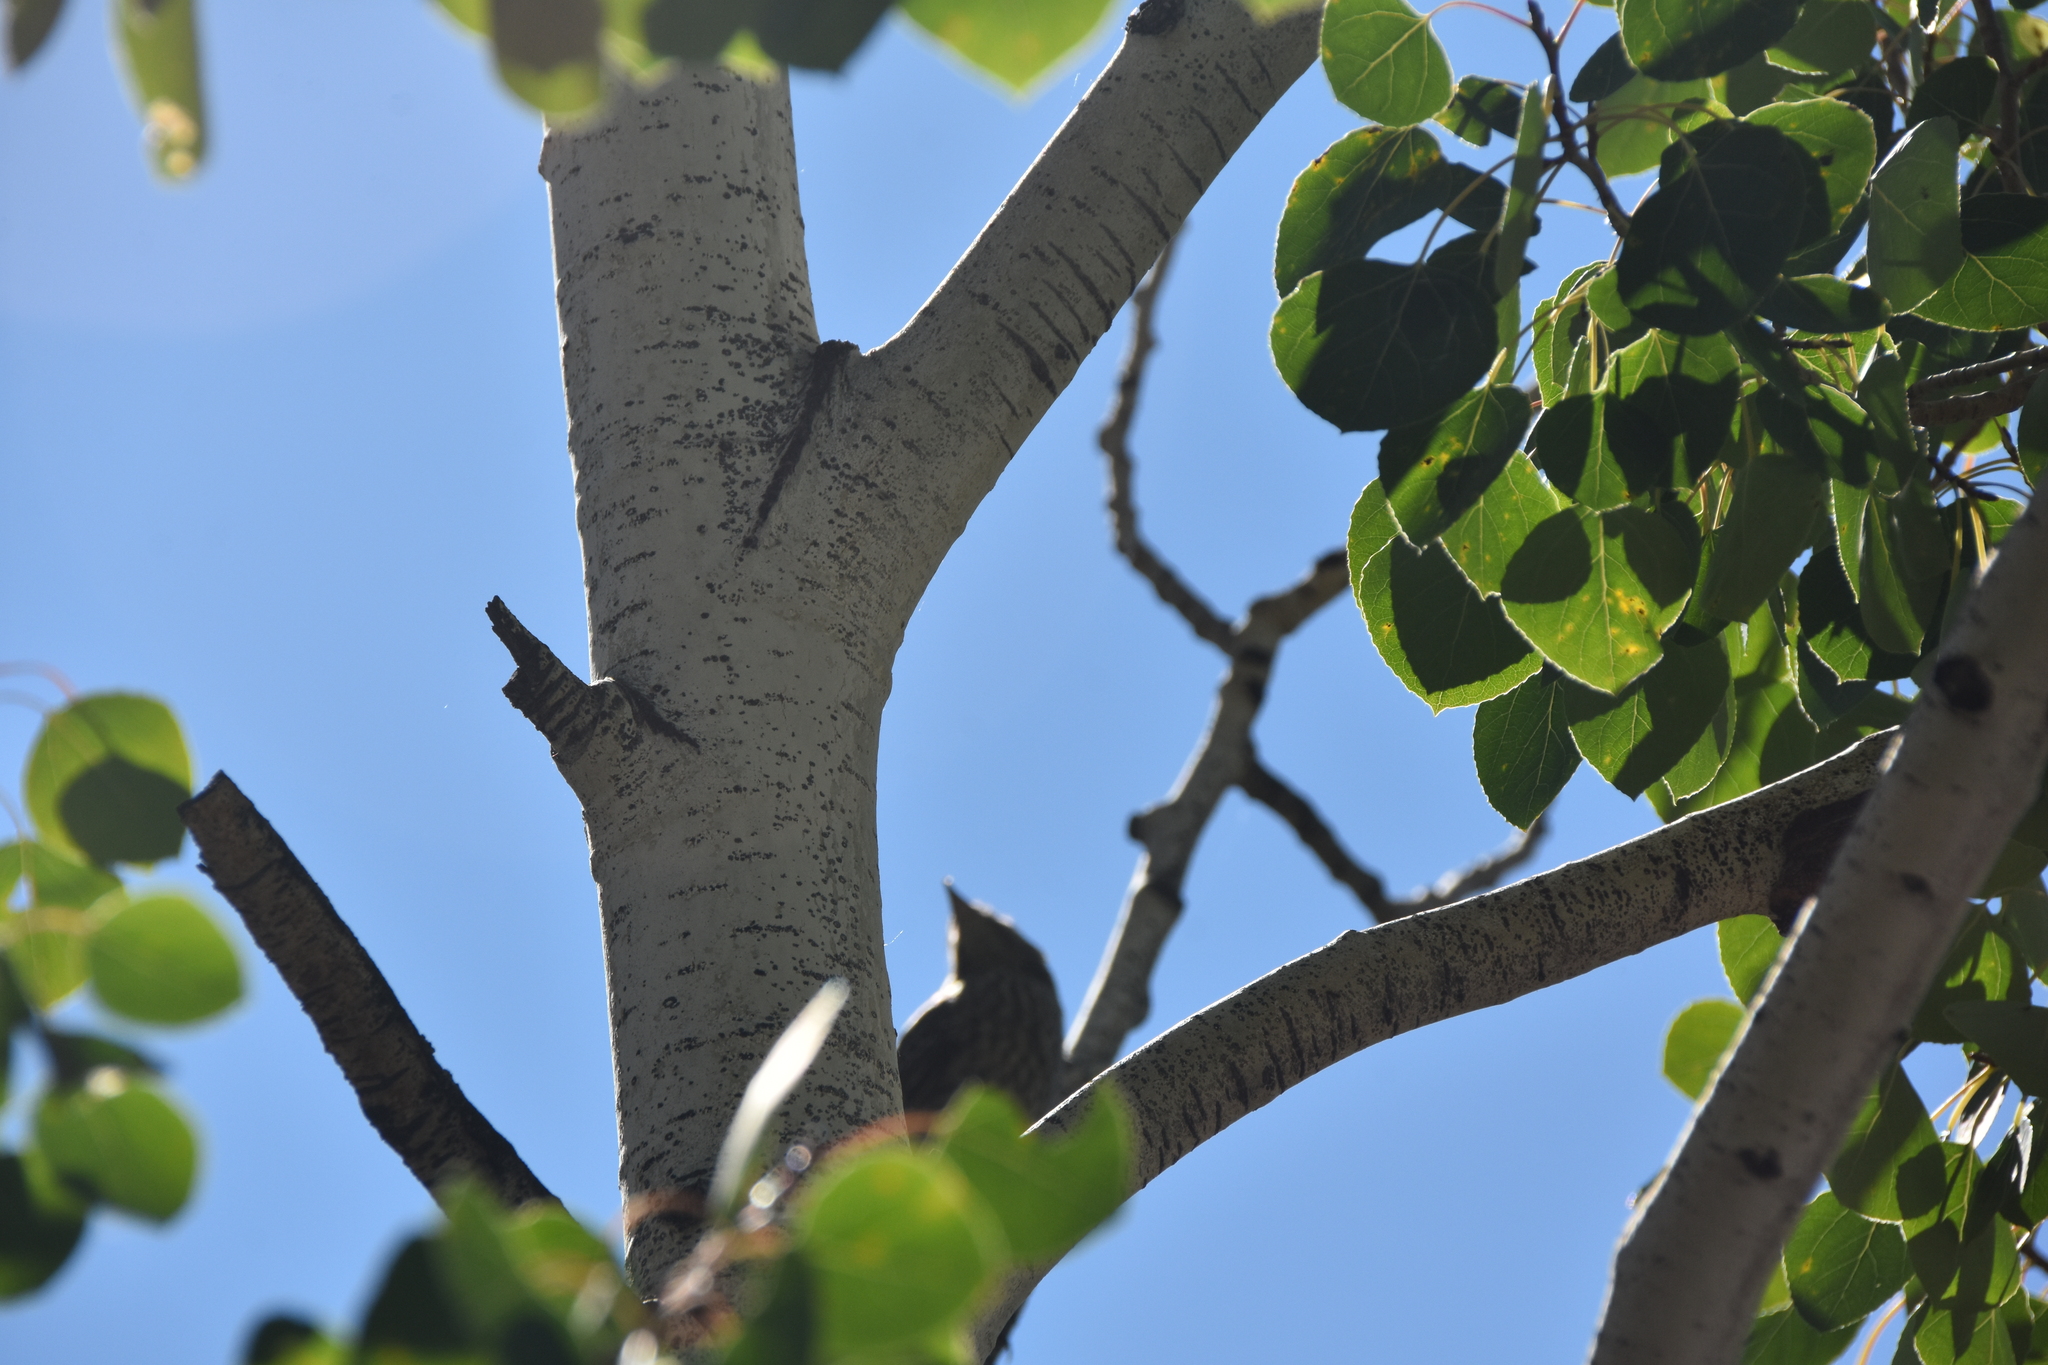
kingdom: Animalia
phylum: Chordata
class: Aves
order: Passeriformes
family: Icteridae
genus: Molothrus
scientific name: Molothrus ater
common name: Brown-headed cowbird
